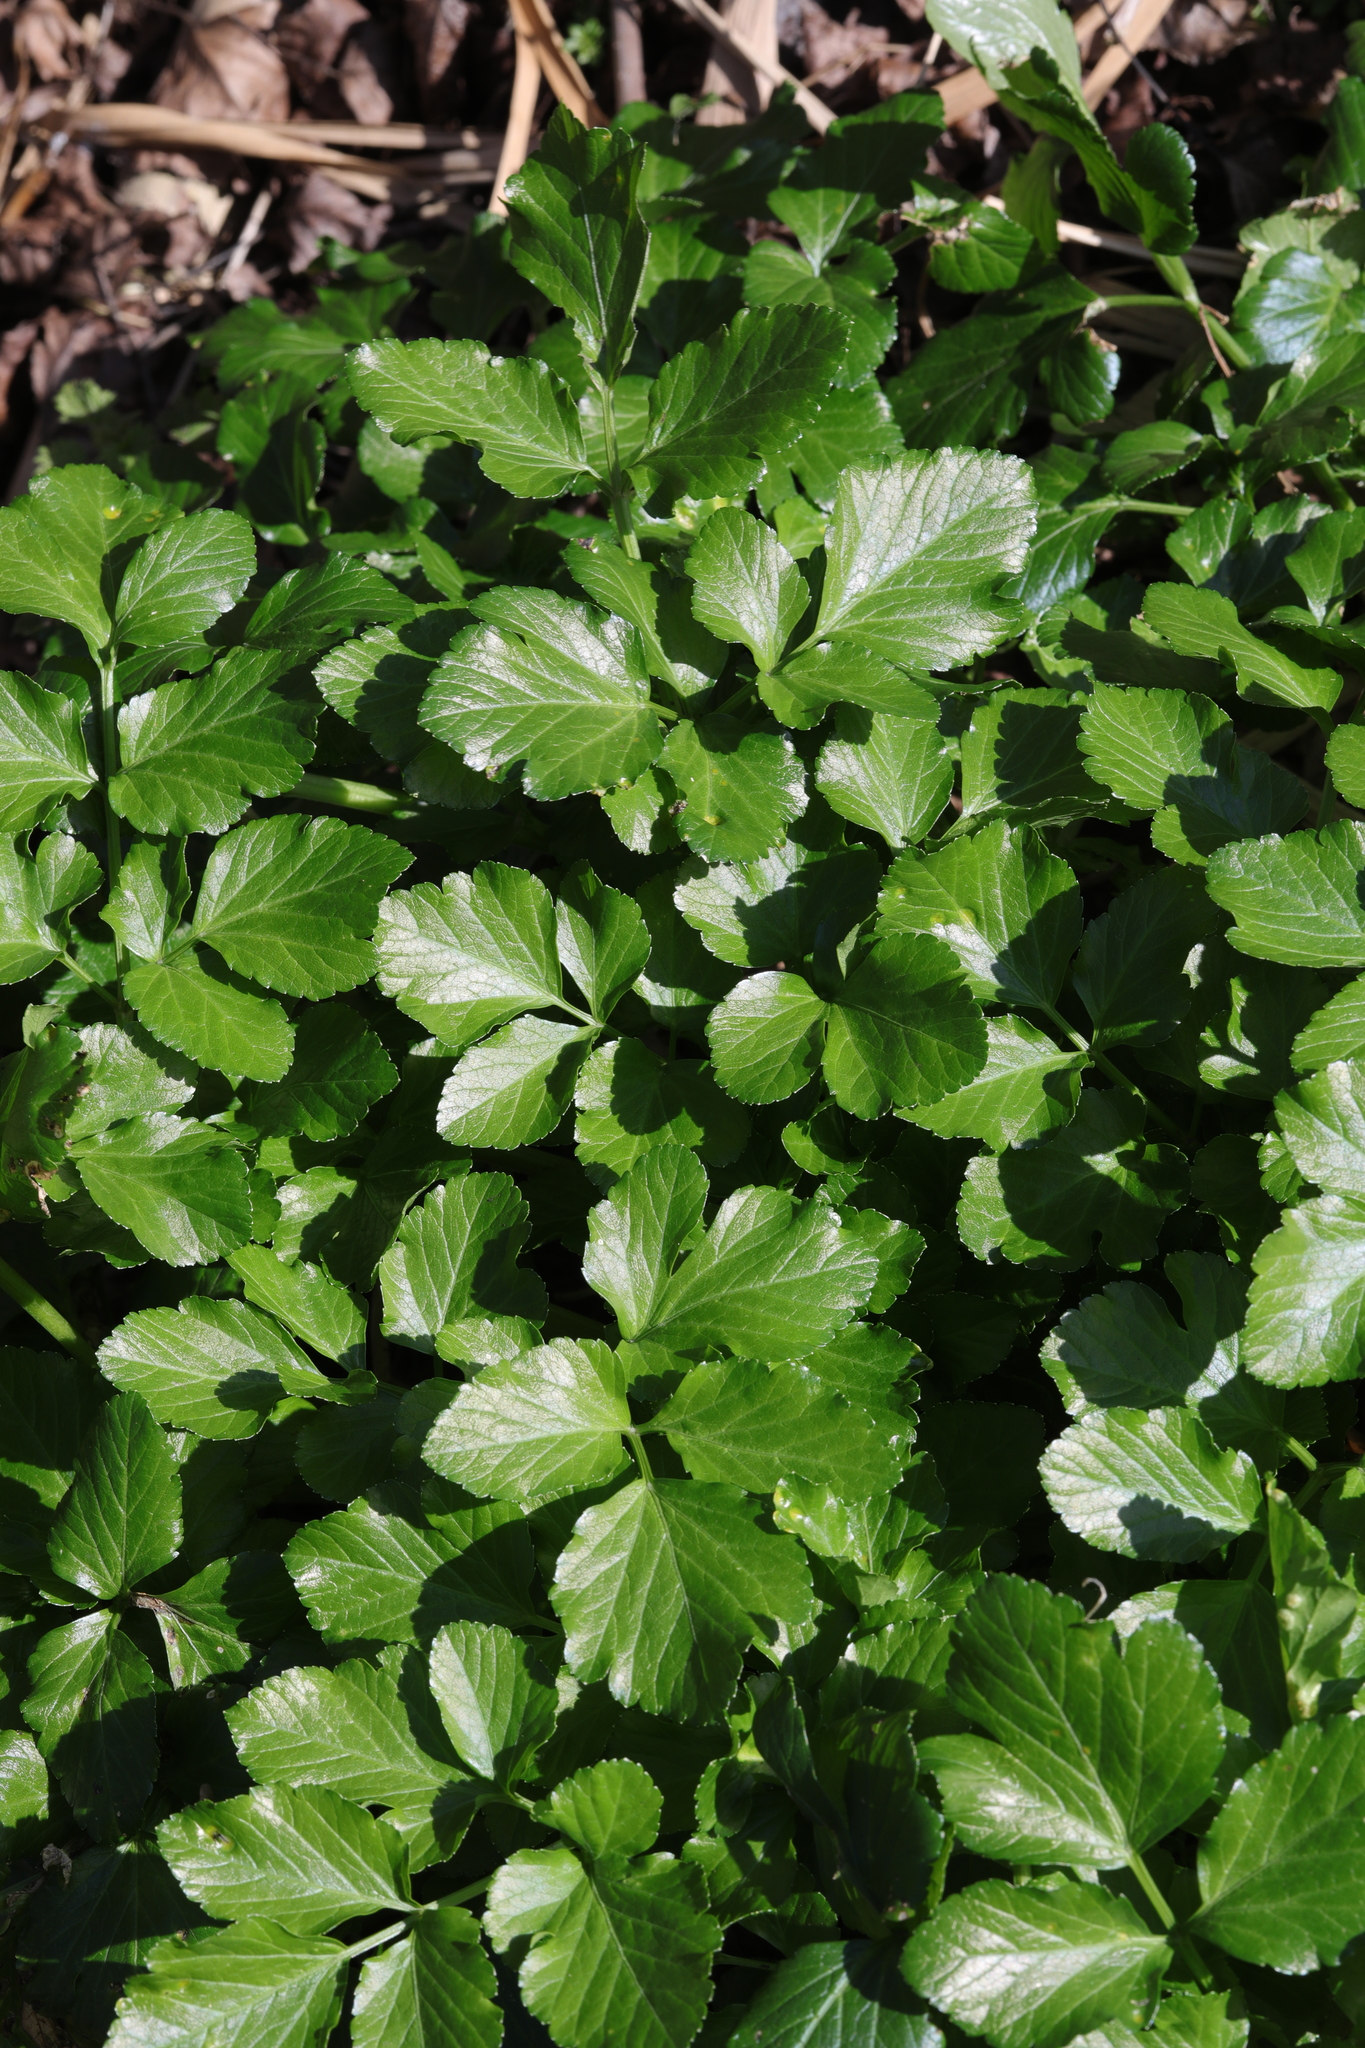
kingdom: Plantae
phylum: Tracheophyta
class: Magnoliopsida
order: Apiales
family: Apiaceae
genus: Smyrnium
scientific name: Smyrnium olusatrum
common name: Alexanders
